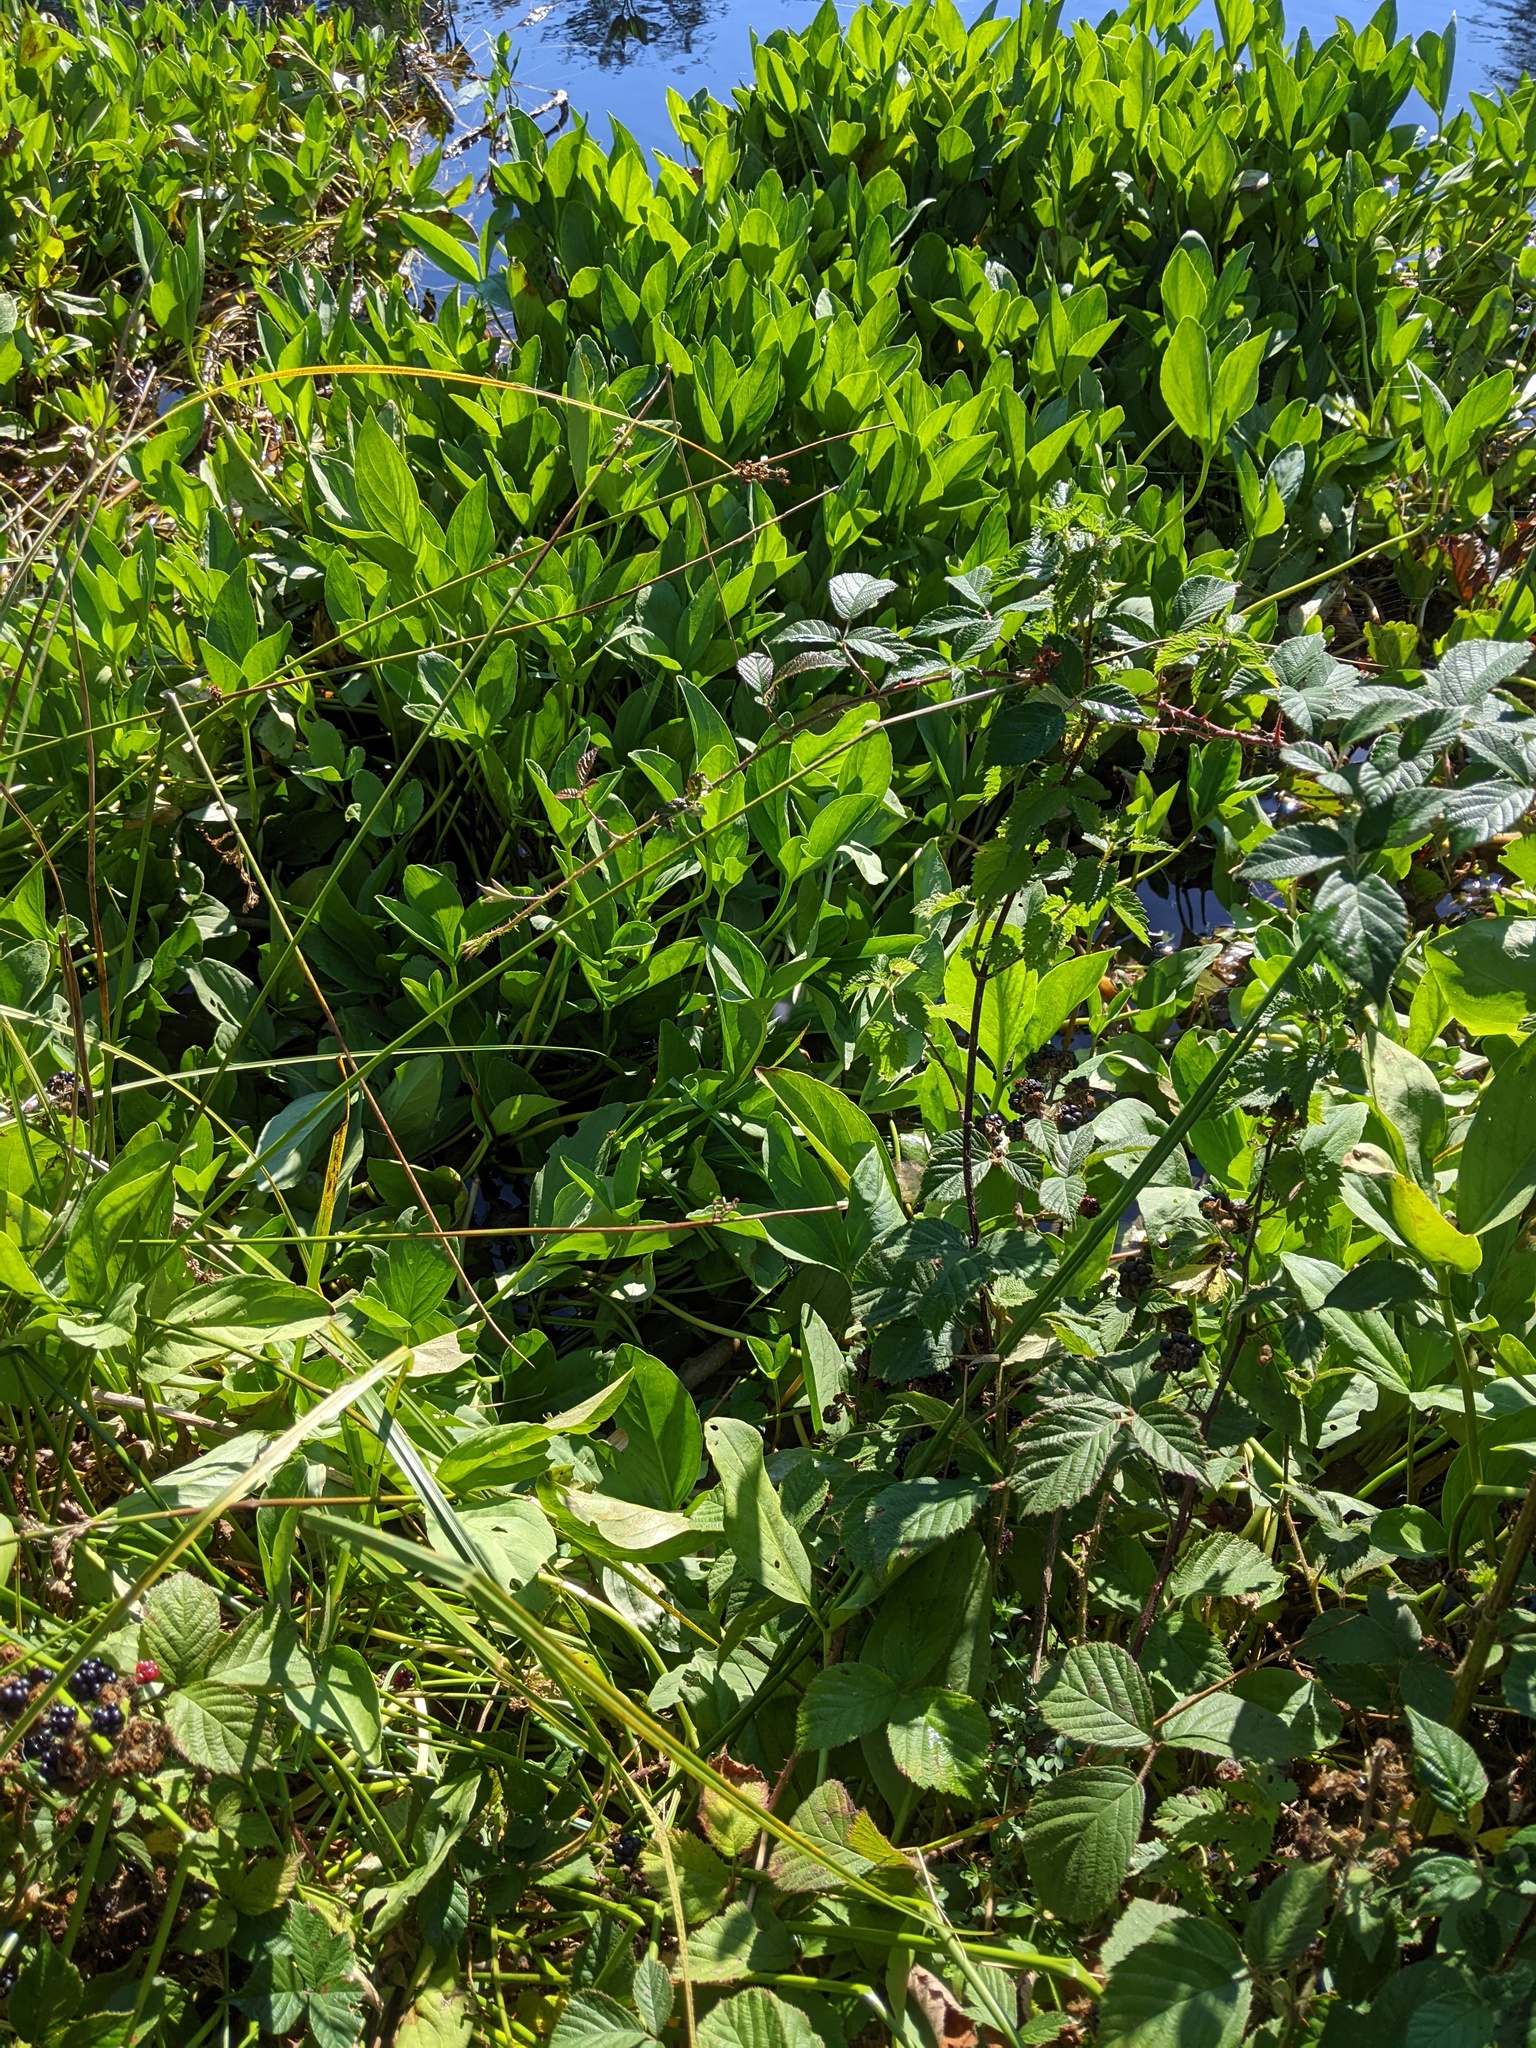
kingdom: Plantae
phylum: Tracheophyta
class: Magnoliopsida
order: Asterales
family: Menyanthaceae
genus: Menyanthes
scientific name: Menyanthes trifoliata
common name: Bogbean
